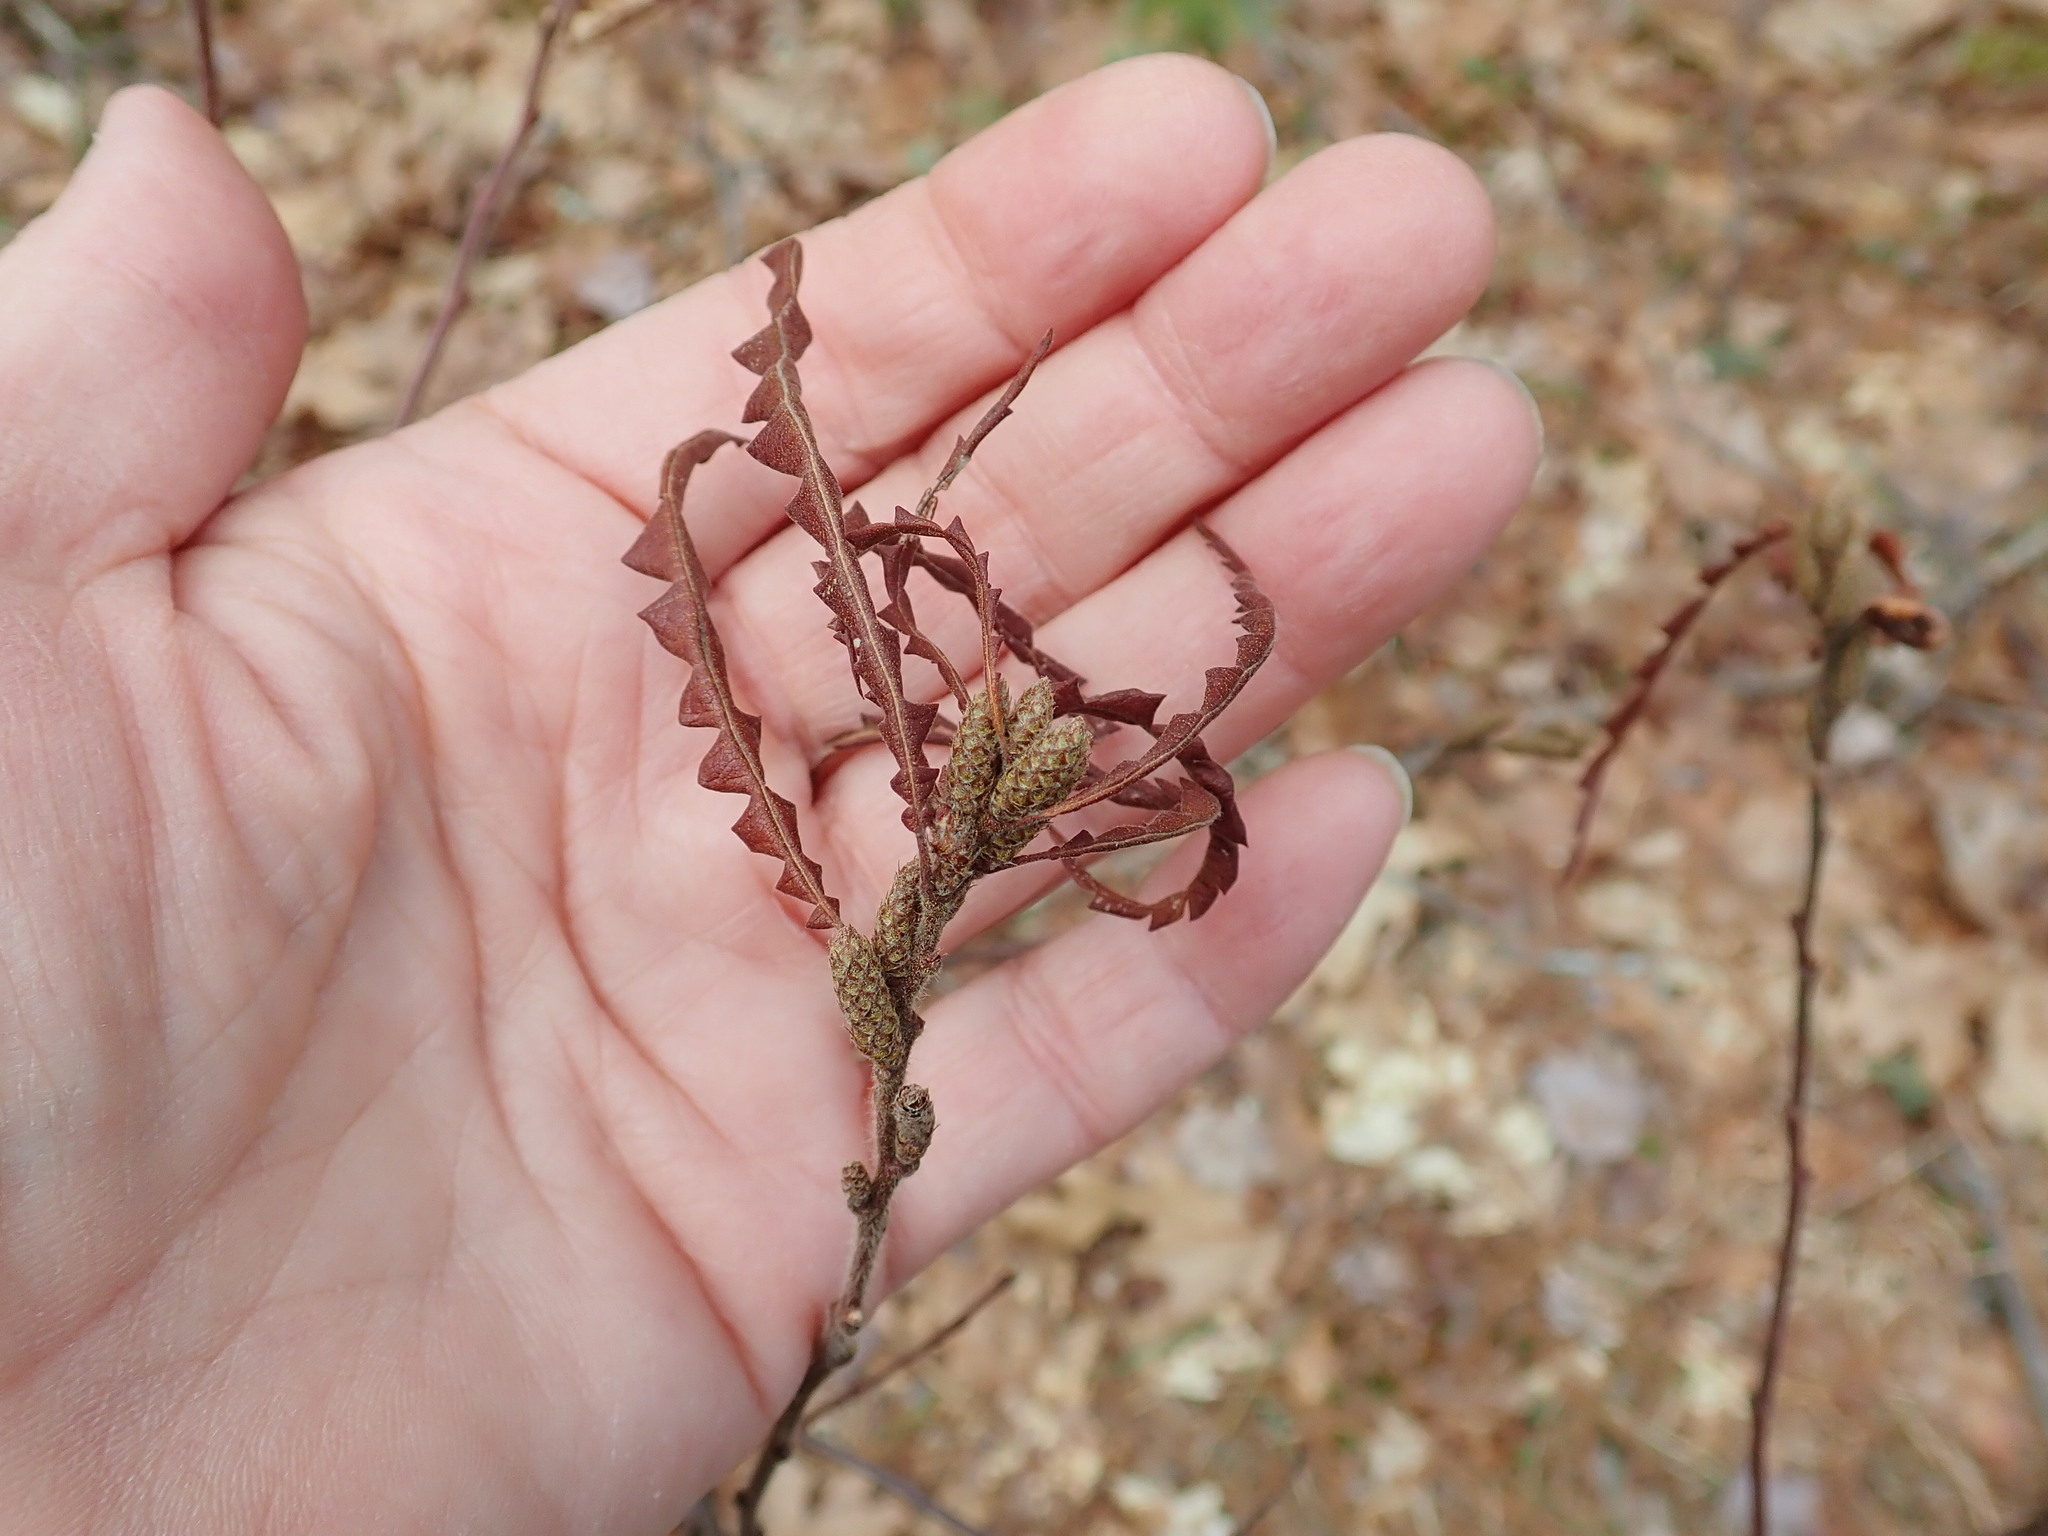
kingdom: Plantae
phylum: Tracheophyta
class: Magnoliopsida
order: Fagales
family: Myricaceae
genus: Comptonia
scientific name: Comptonia peregrina
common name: Sweet-fern
